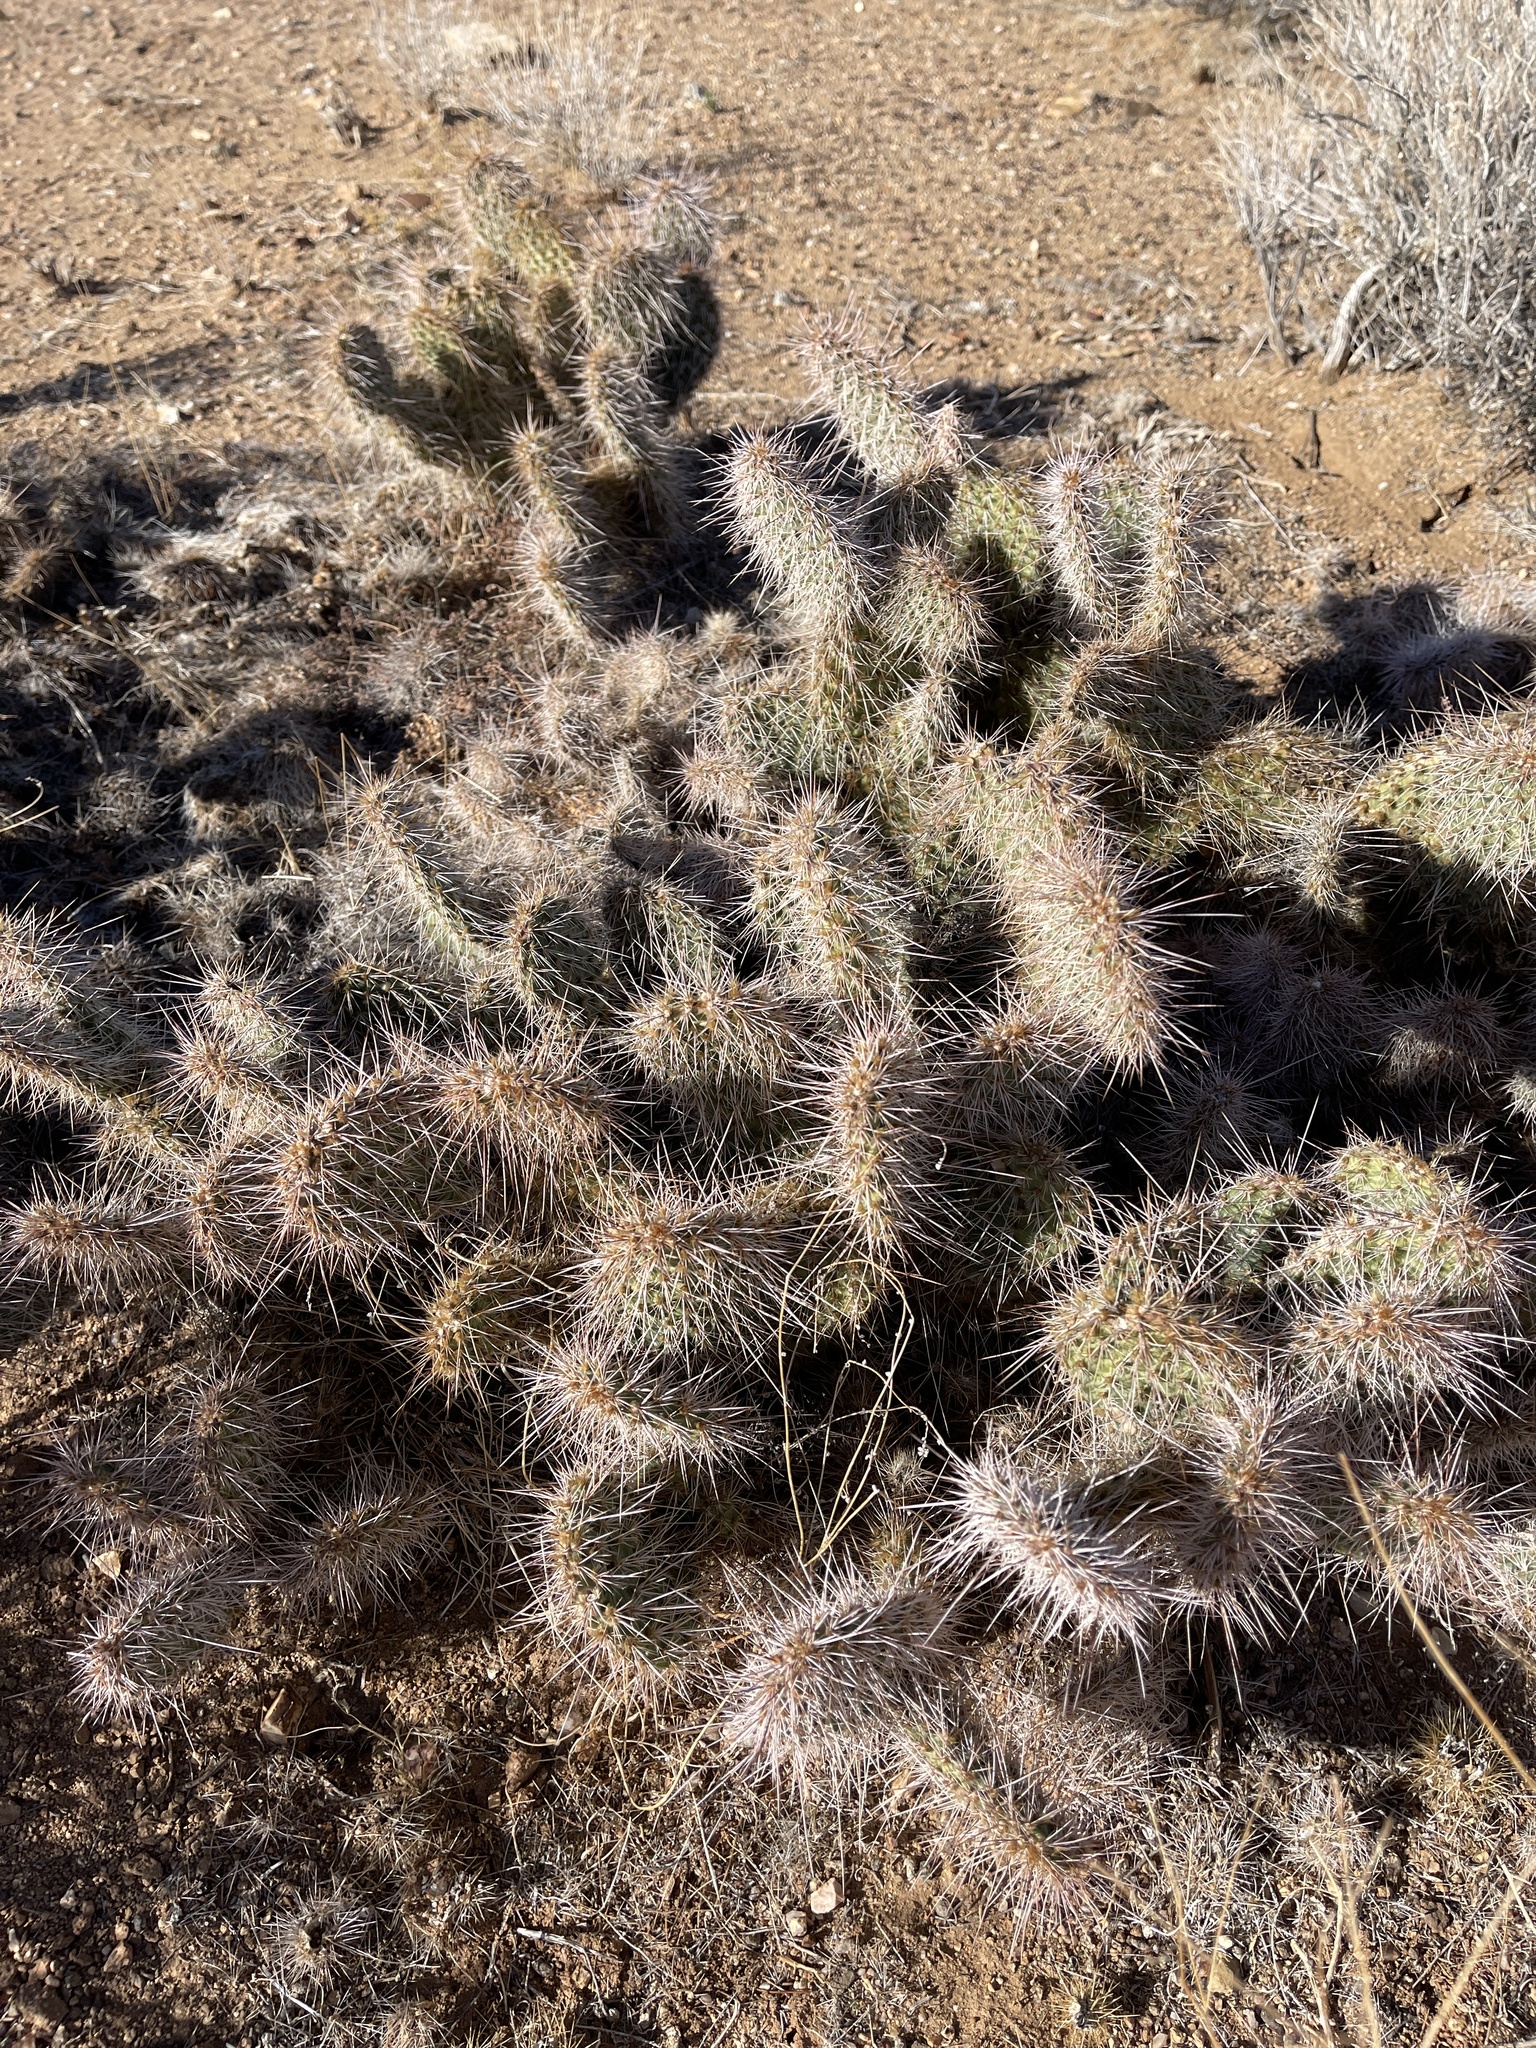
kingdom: Plantae
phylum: Tracheophyta
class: Magnoliopsida
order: Caryophyllales
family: Cactaceae
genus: Opuntia
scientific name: Opuntia polyacantha
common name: Plains prickly-pear
